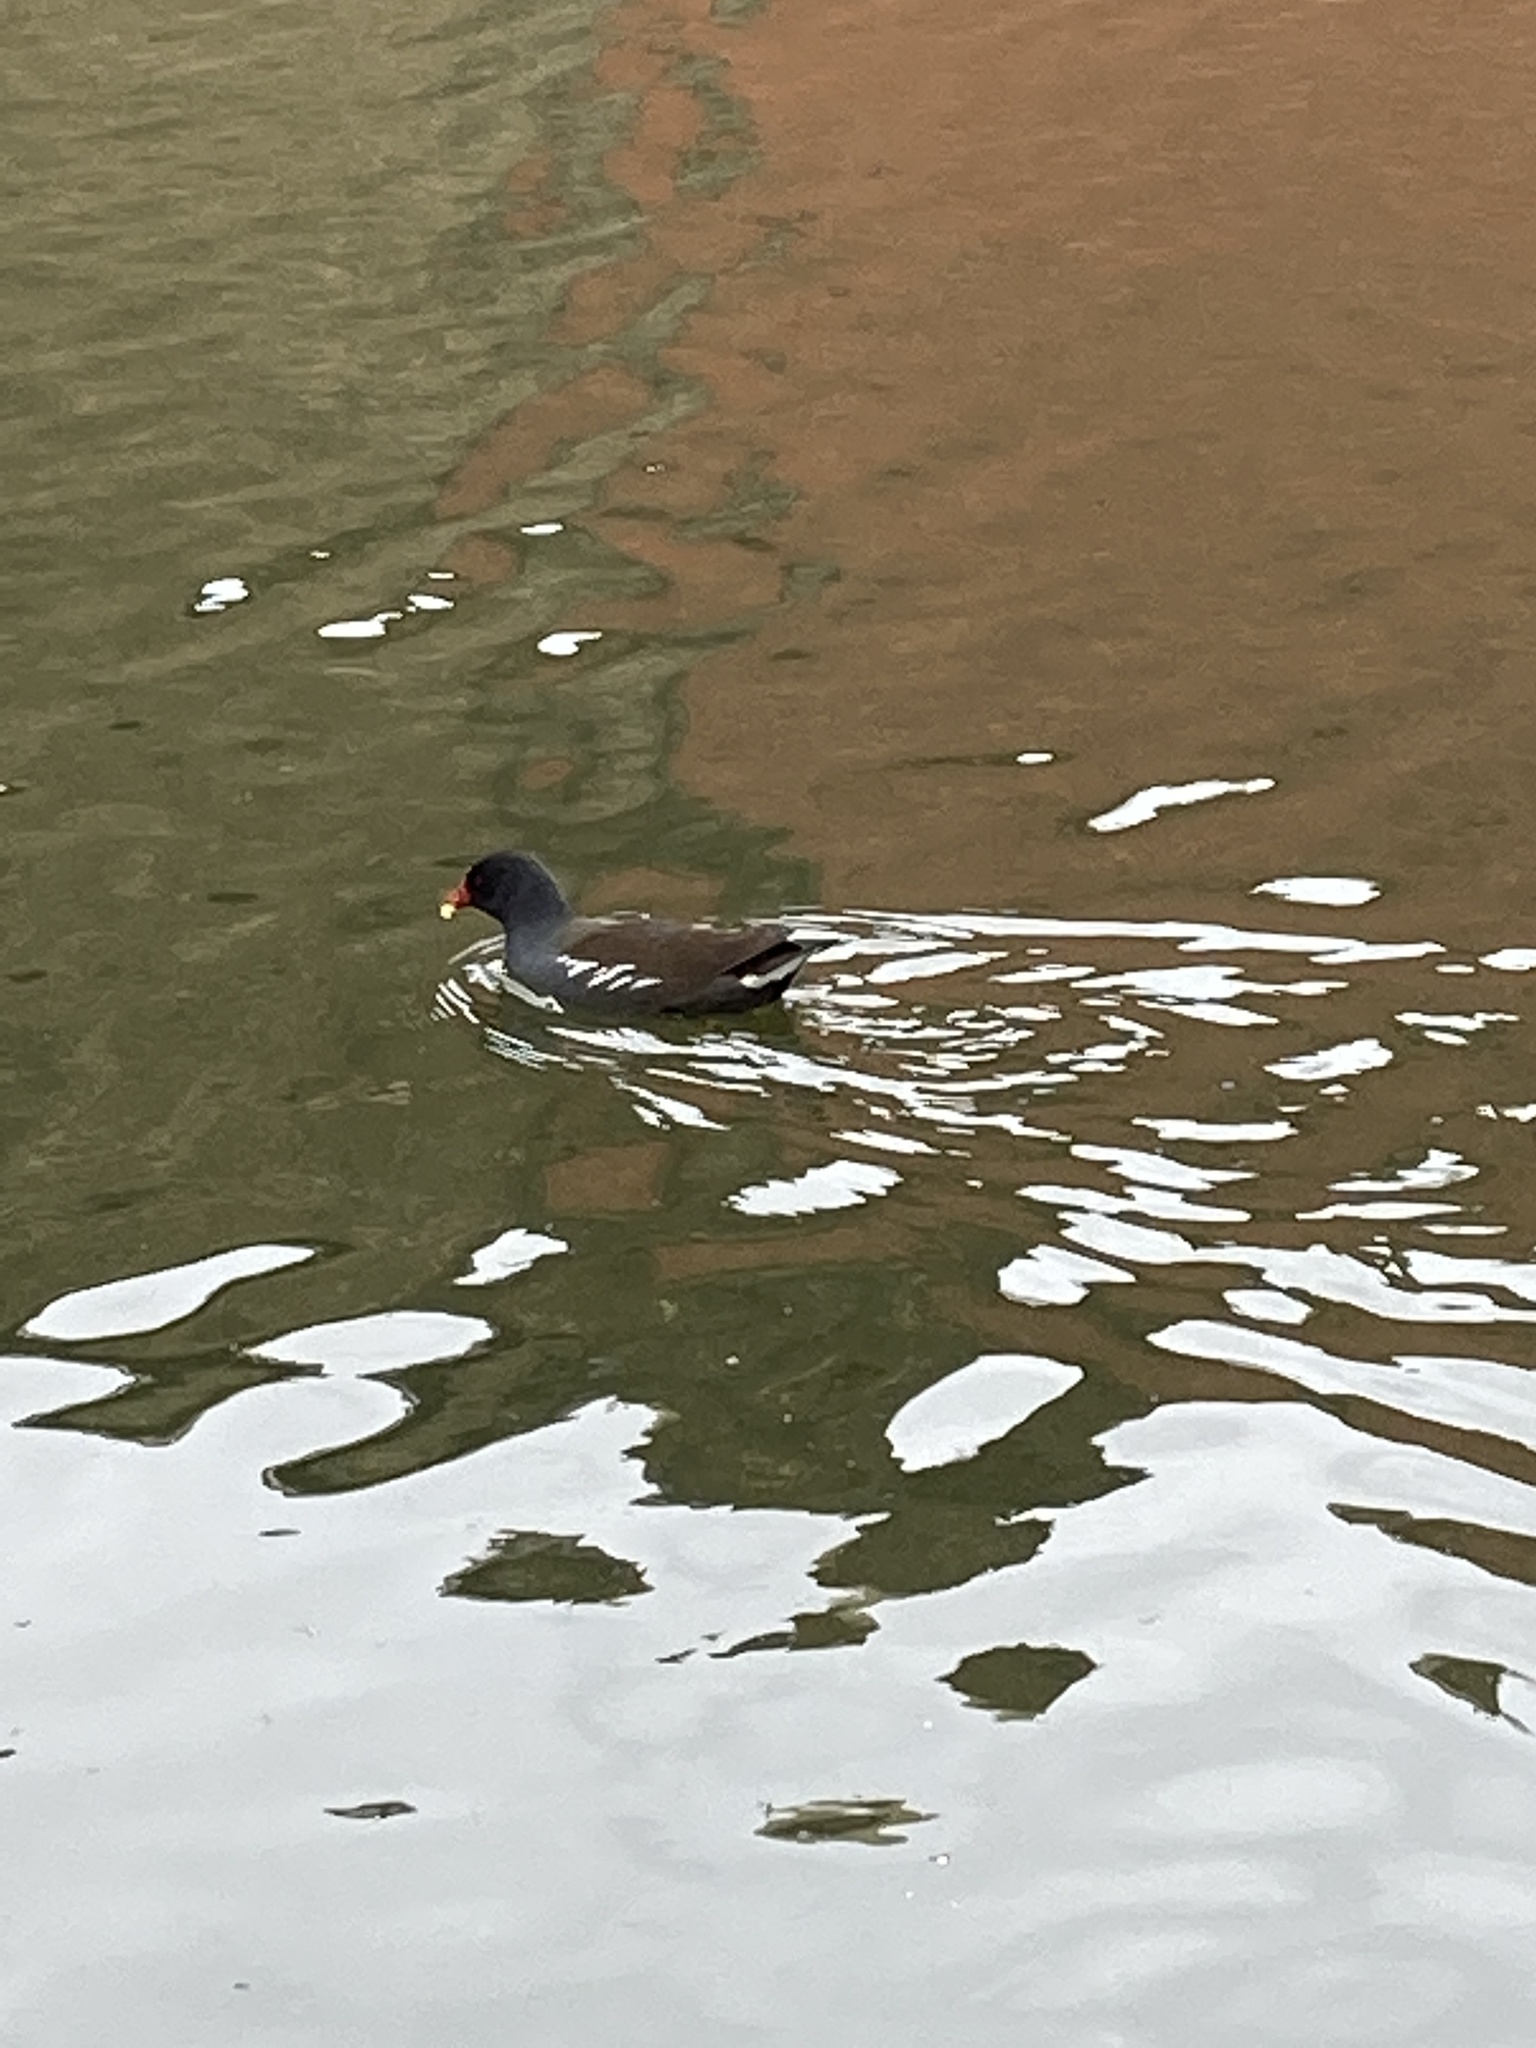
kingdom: Animalia
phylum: Chordata
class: Aves
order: Gruiformes
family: Rallidae
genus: Gallinula
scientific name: Gallinula chloropus
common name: Common moorhen
